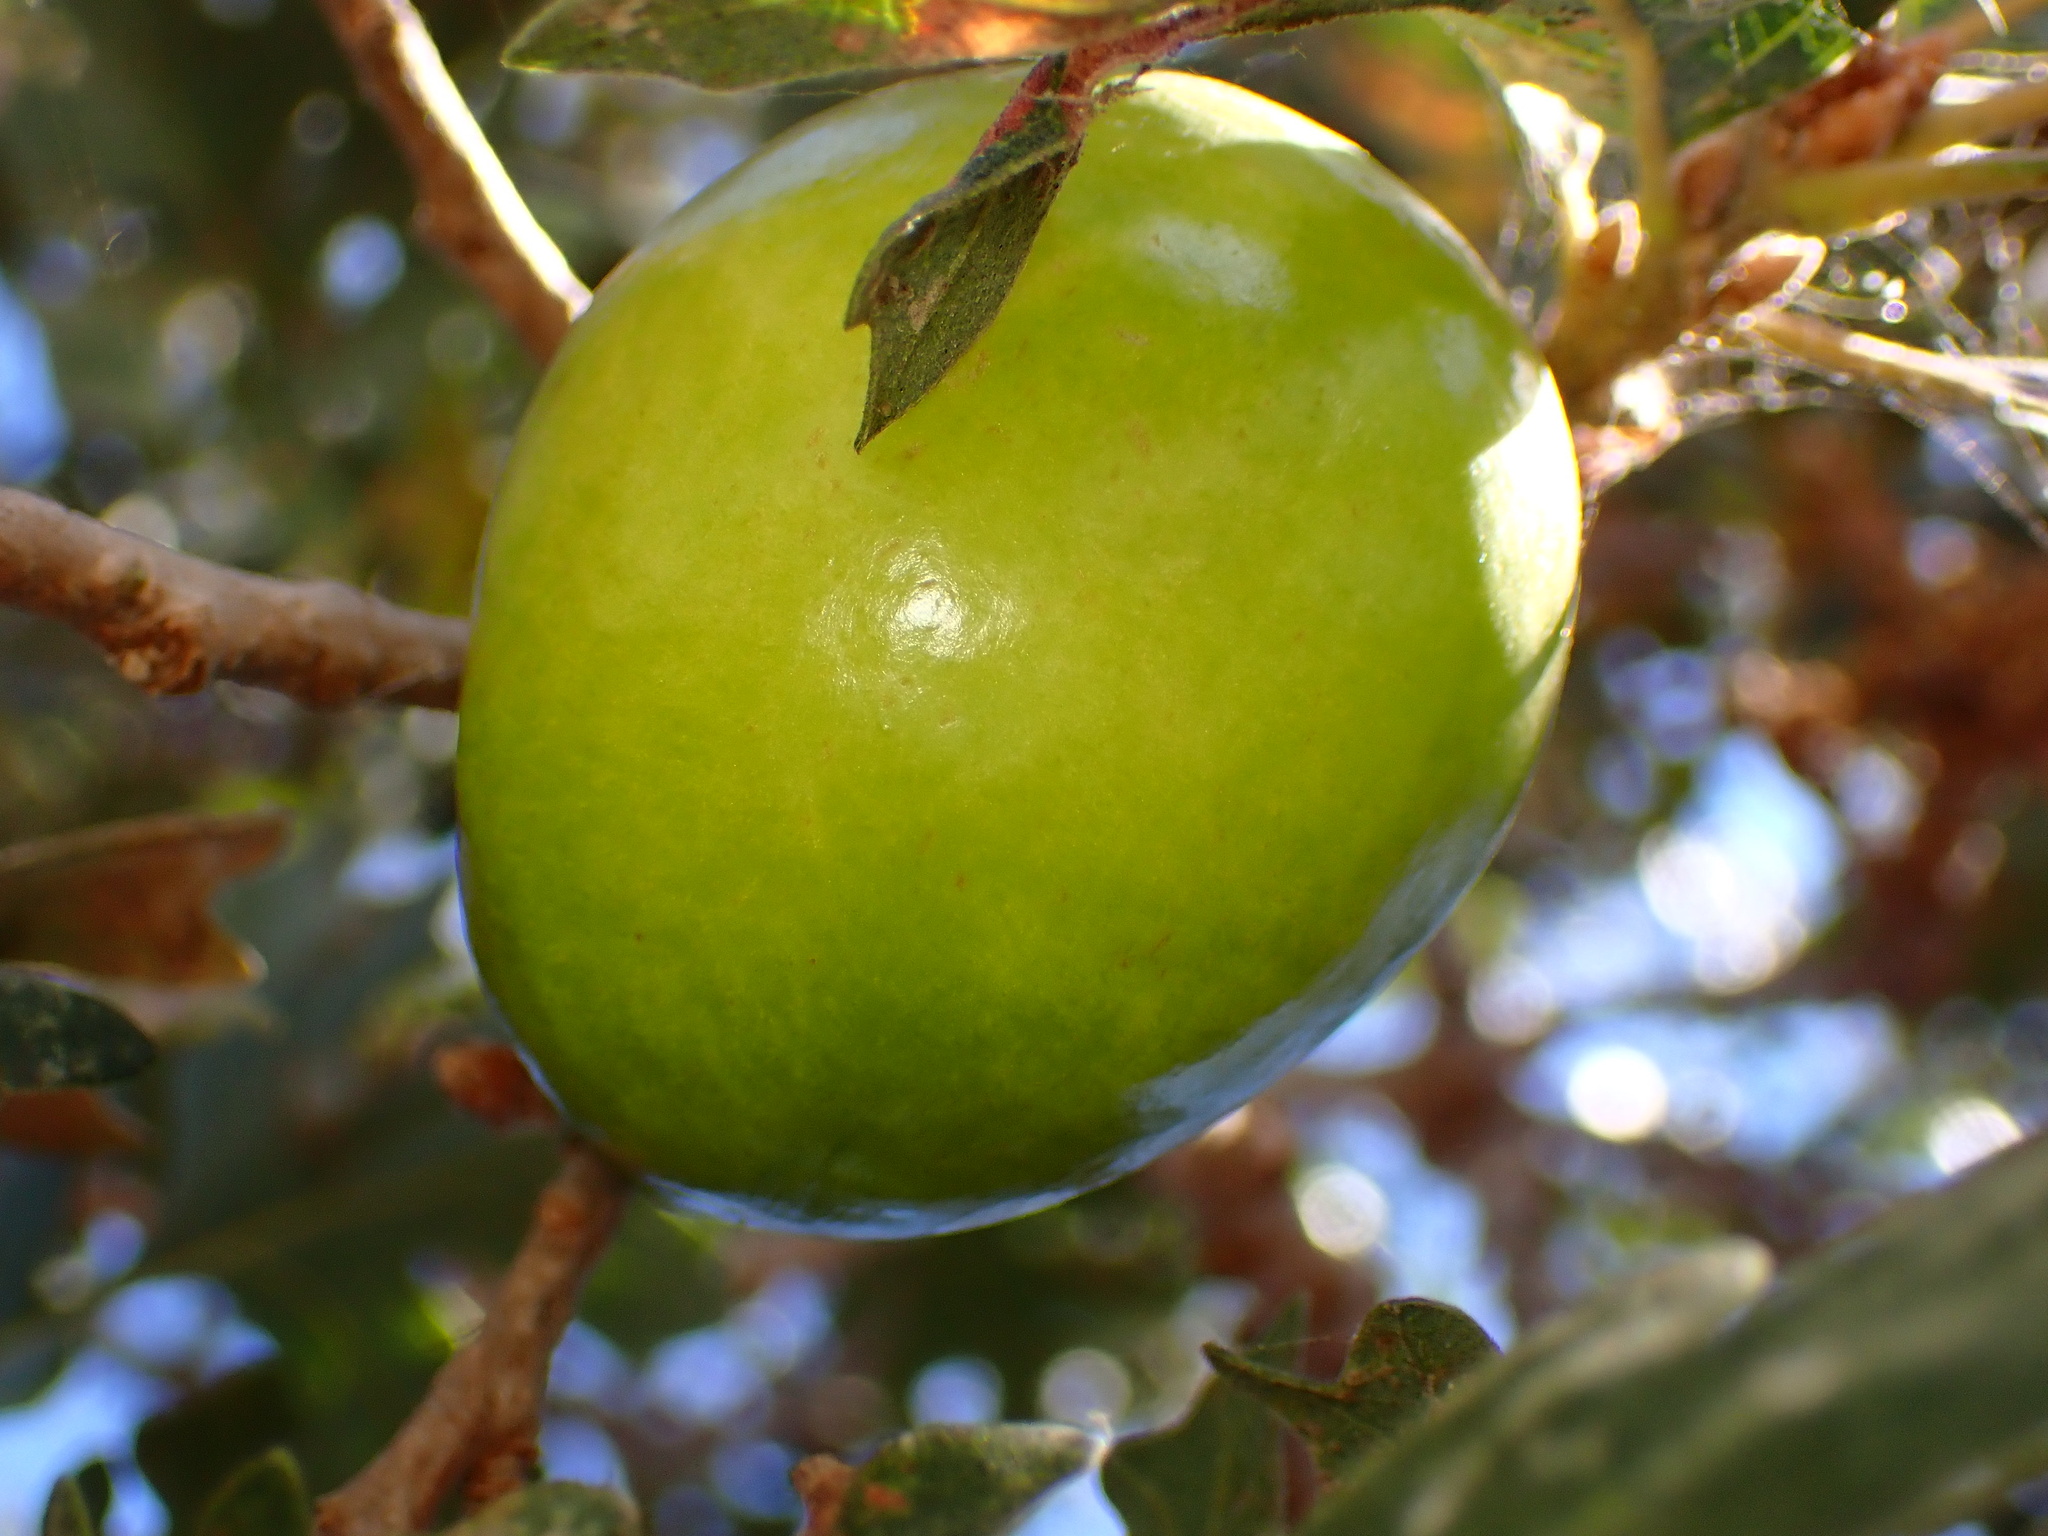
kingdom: Animalia
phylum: Arthropoda
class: Insecta
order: Hymenoptera
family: Cynipidae
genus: Andricus
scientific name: Andricus quercuscalifornicus
